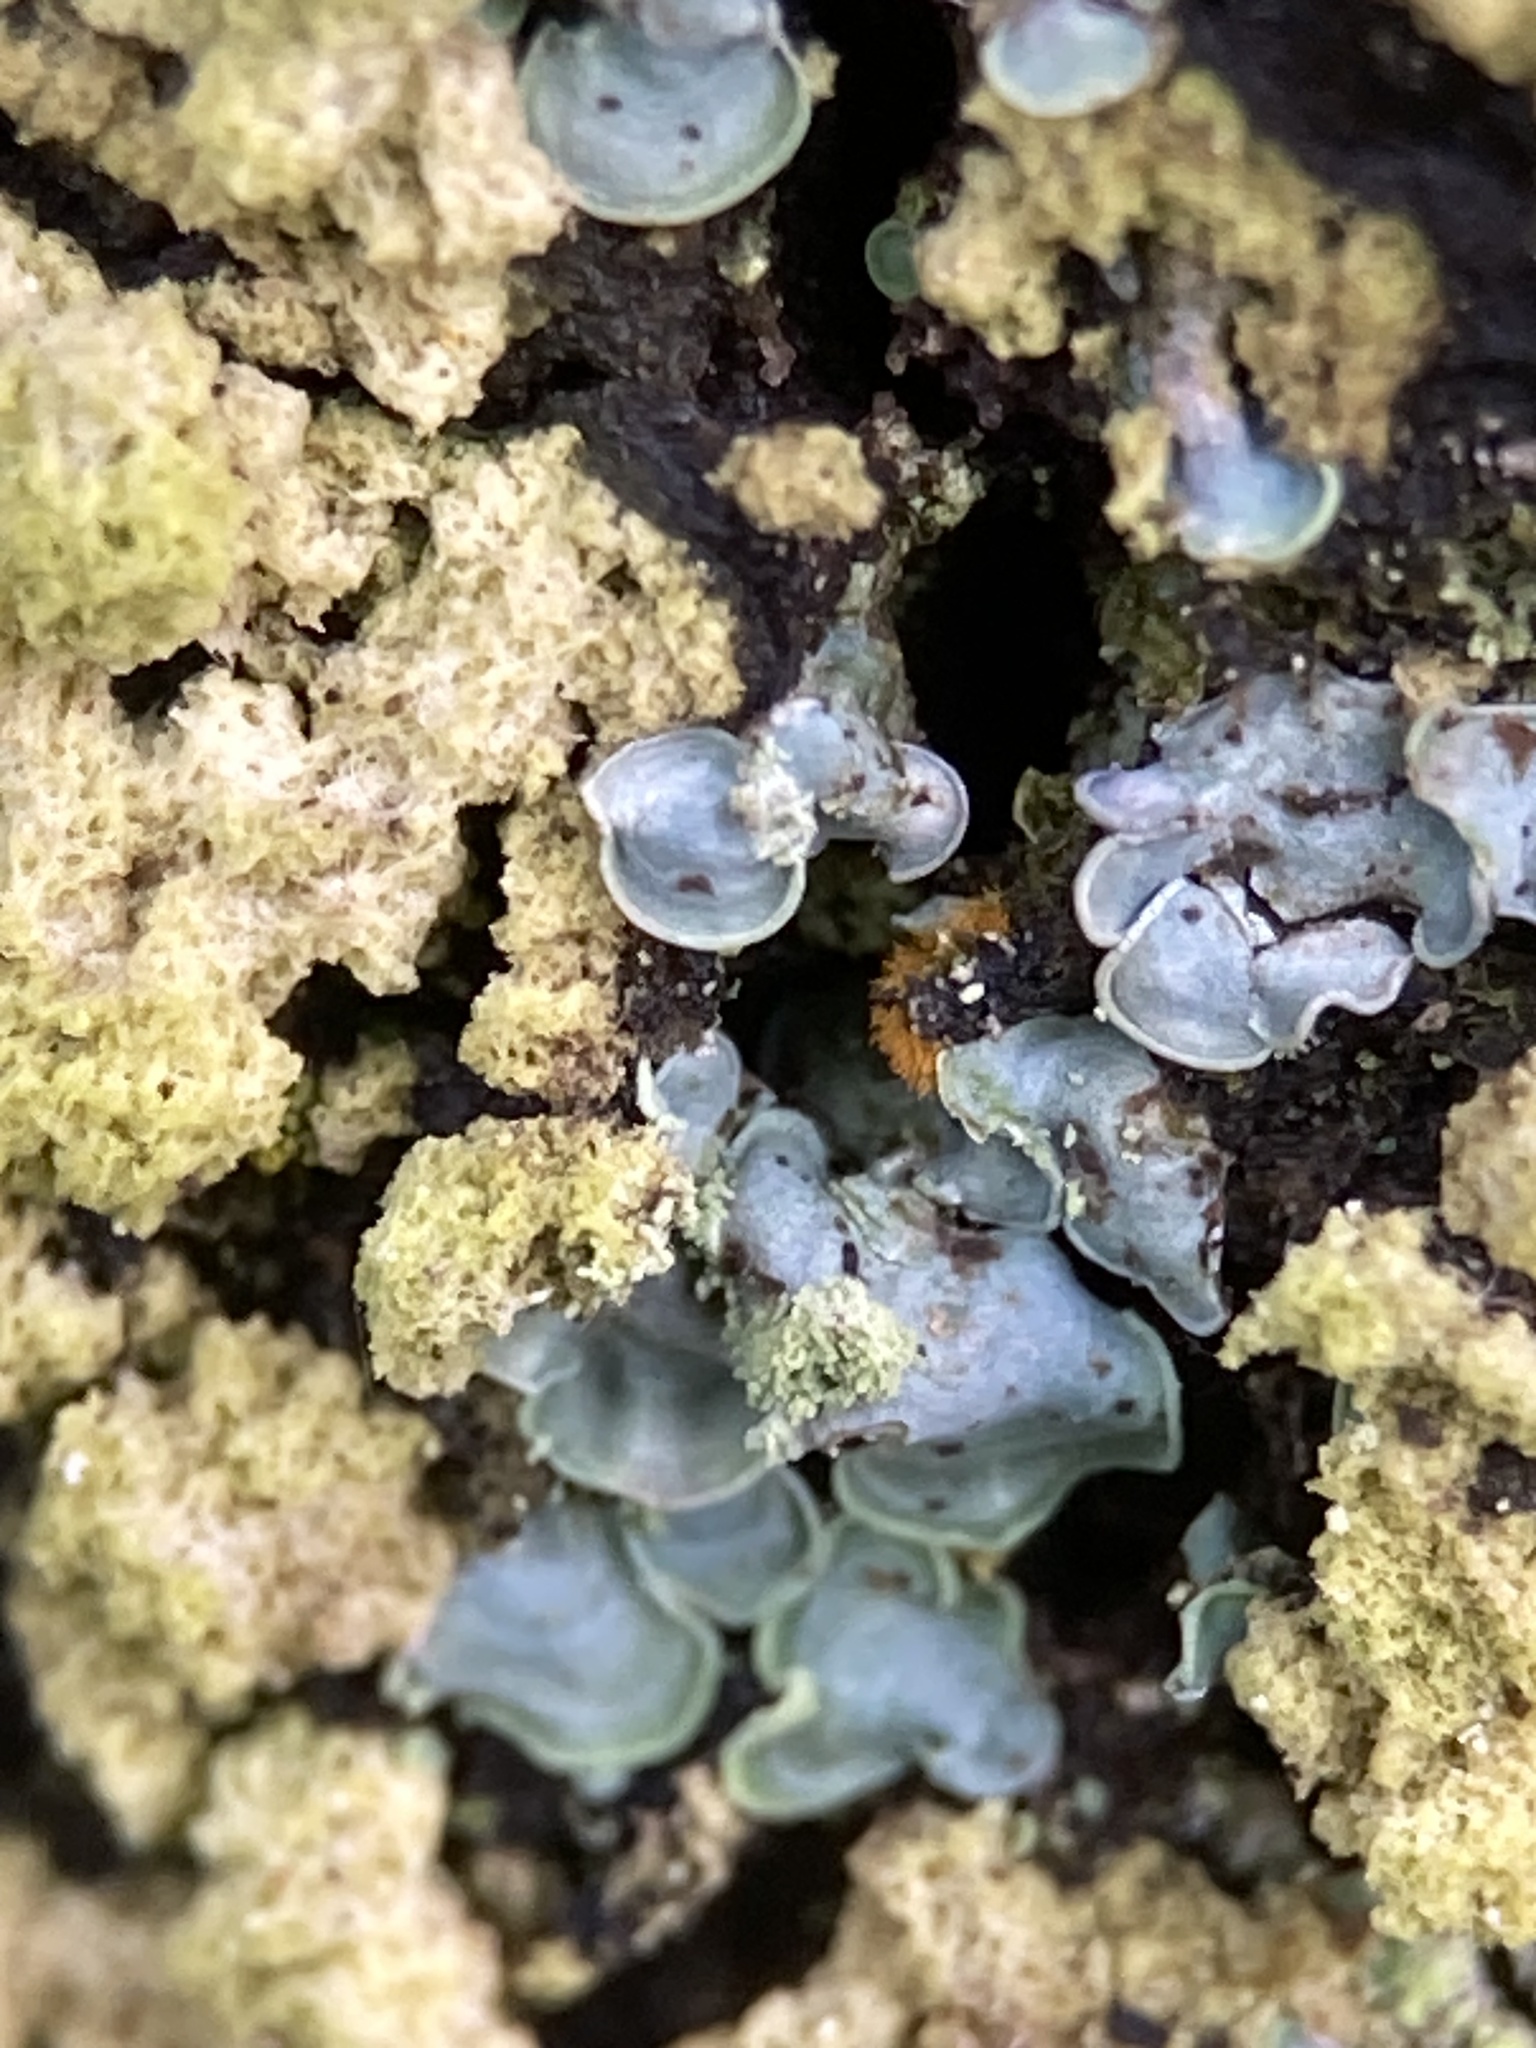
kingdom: Fungi
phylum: Ascomycota
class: Eurotiomycetes
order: Verrucariales
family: Verrucariaceae
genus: Normandina
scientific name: Normandina pulchella
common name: Elf ears lichen
